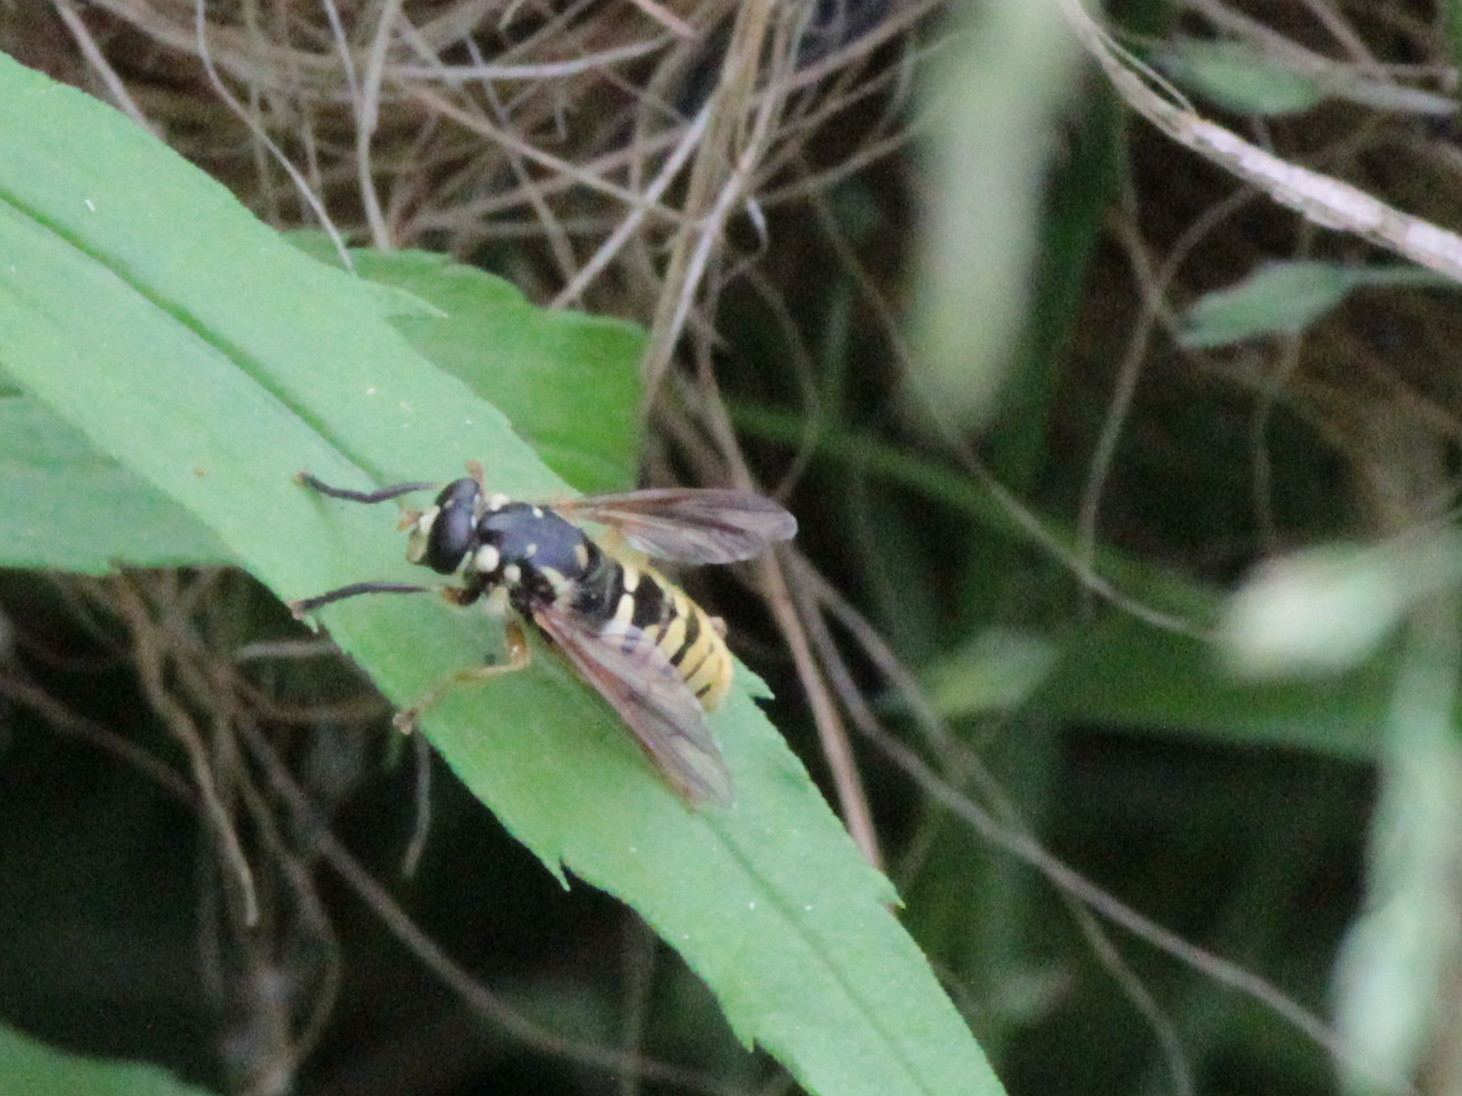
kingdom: Animalia
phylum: Arthropoda
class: Insecta
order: Diptera
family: Syrphidae
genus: Temnostoma
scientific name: Temnostoma alternans
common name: Wasp-like falsehorn
